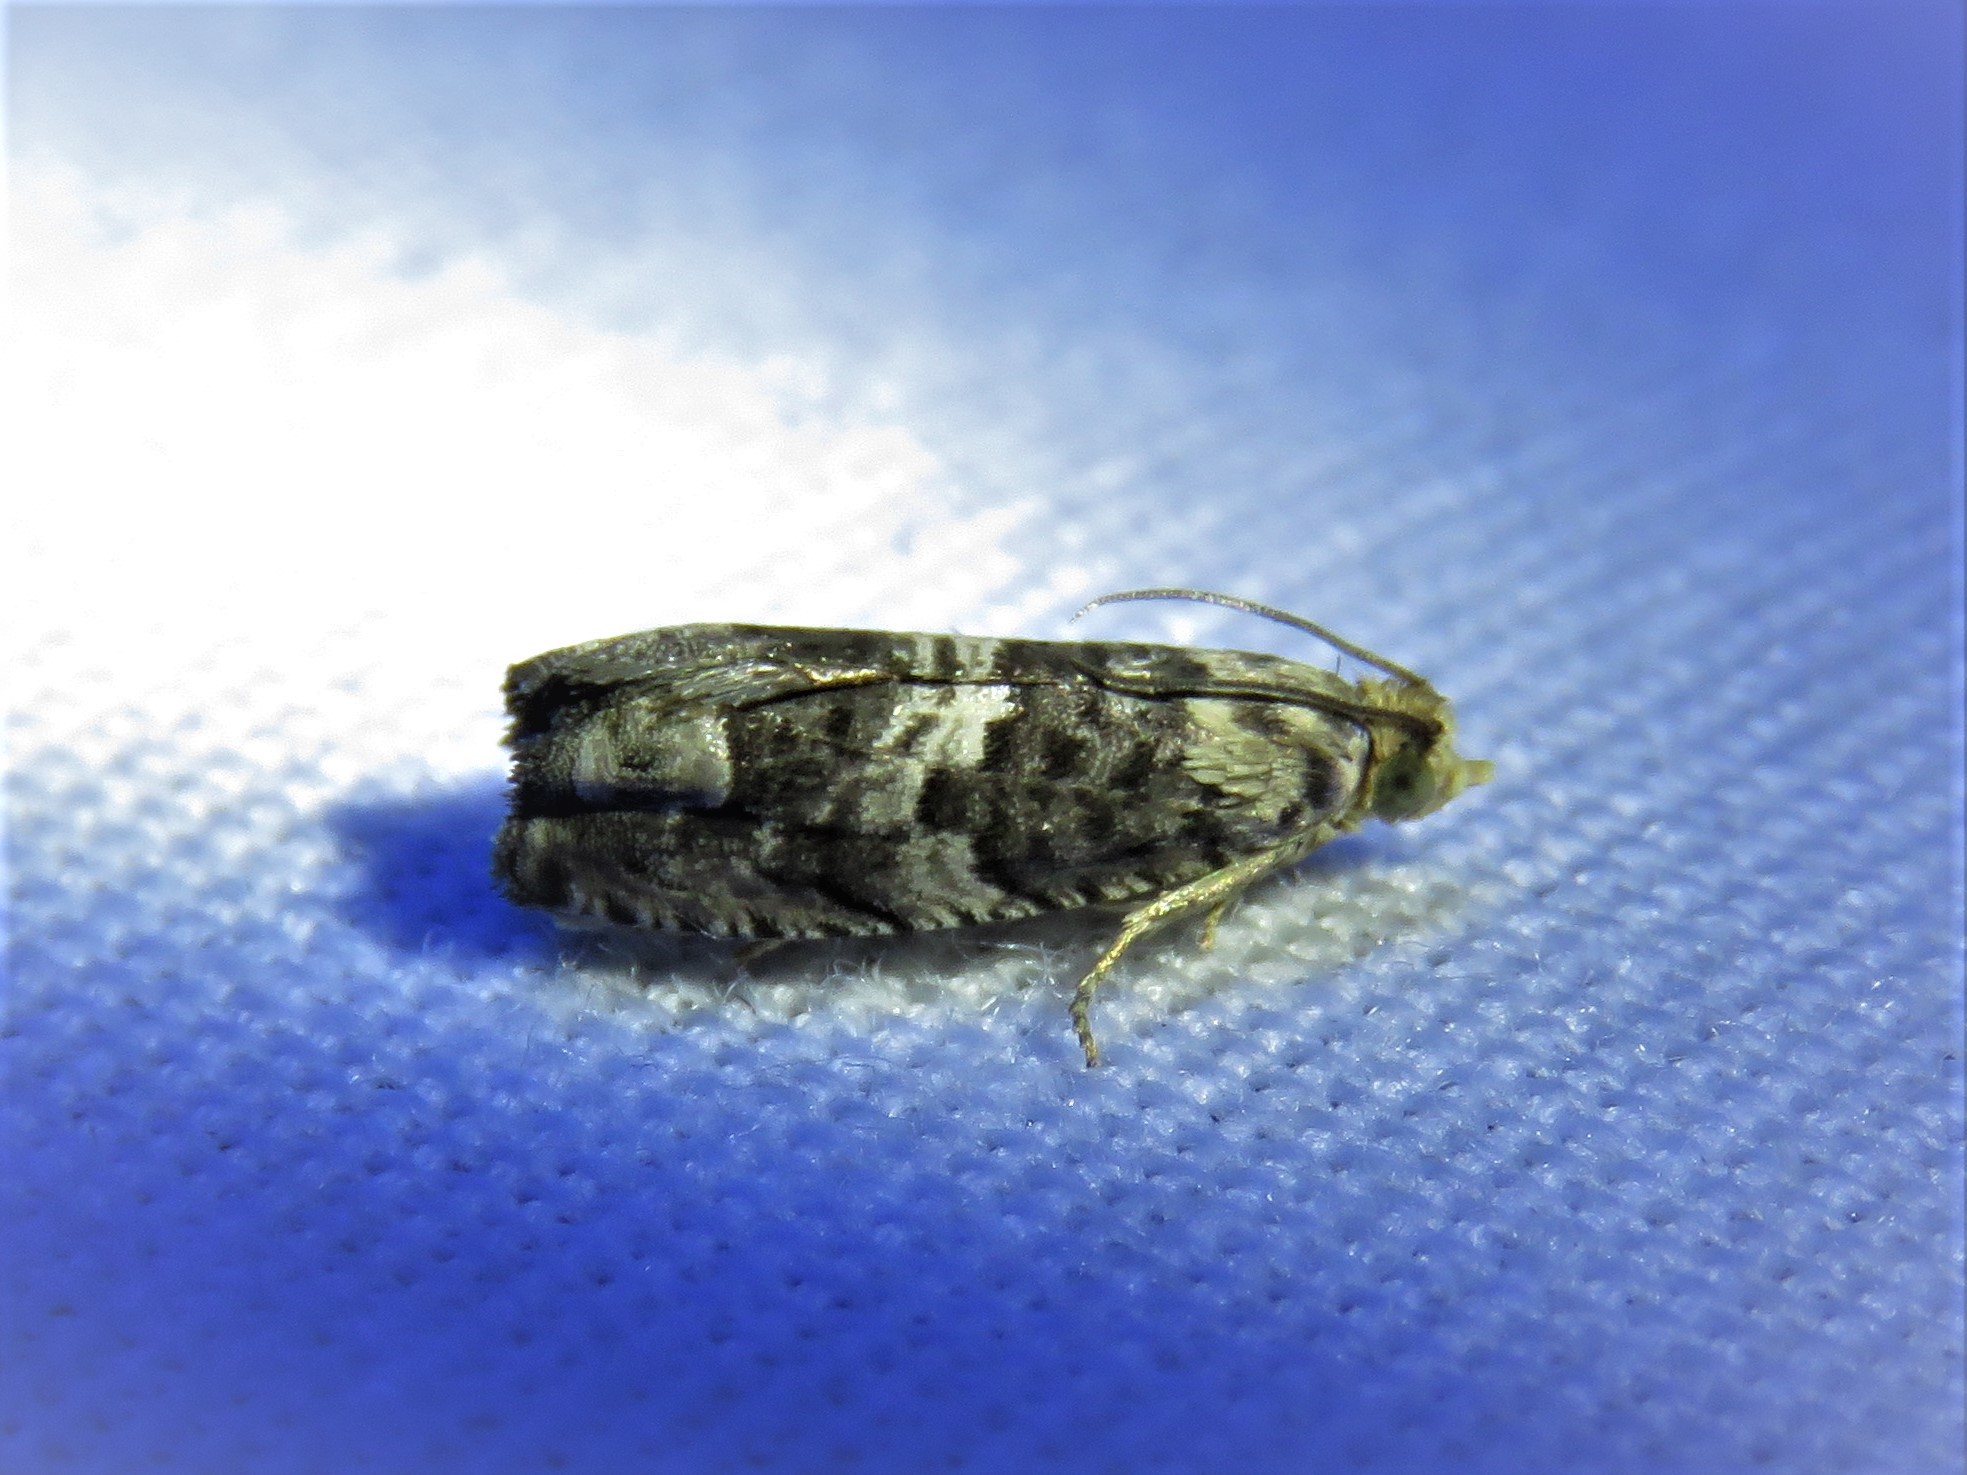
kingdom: Animalia
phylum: Arthropoda
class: Insecta
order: Lepidoptera
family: Tortricidae
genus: Cydia
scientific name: Cydia membrosa
